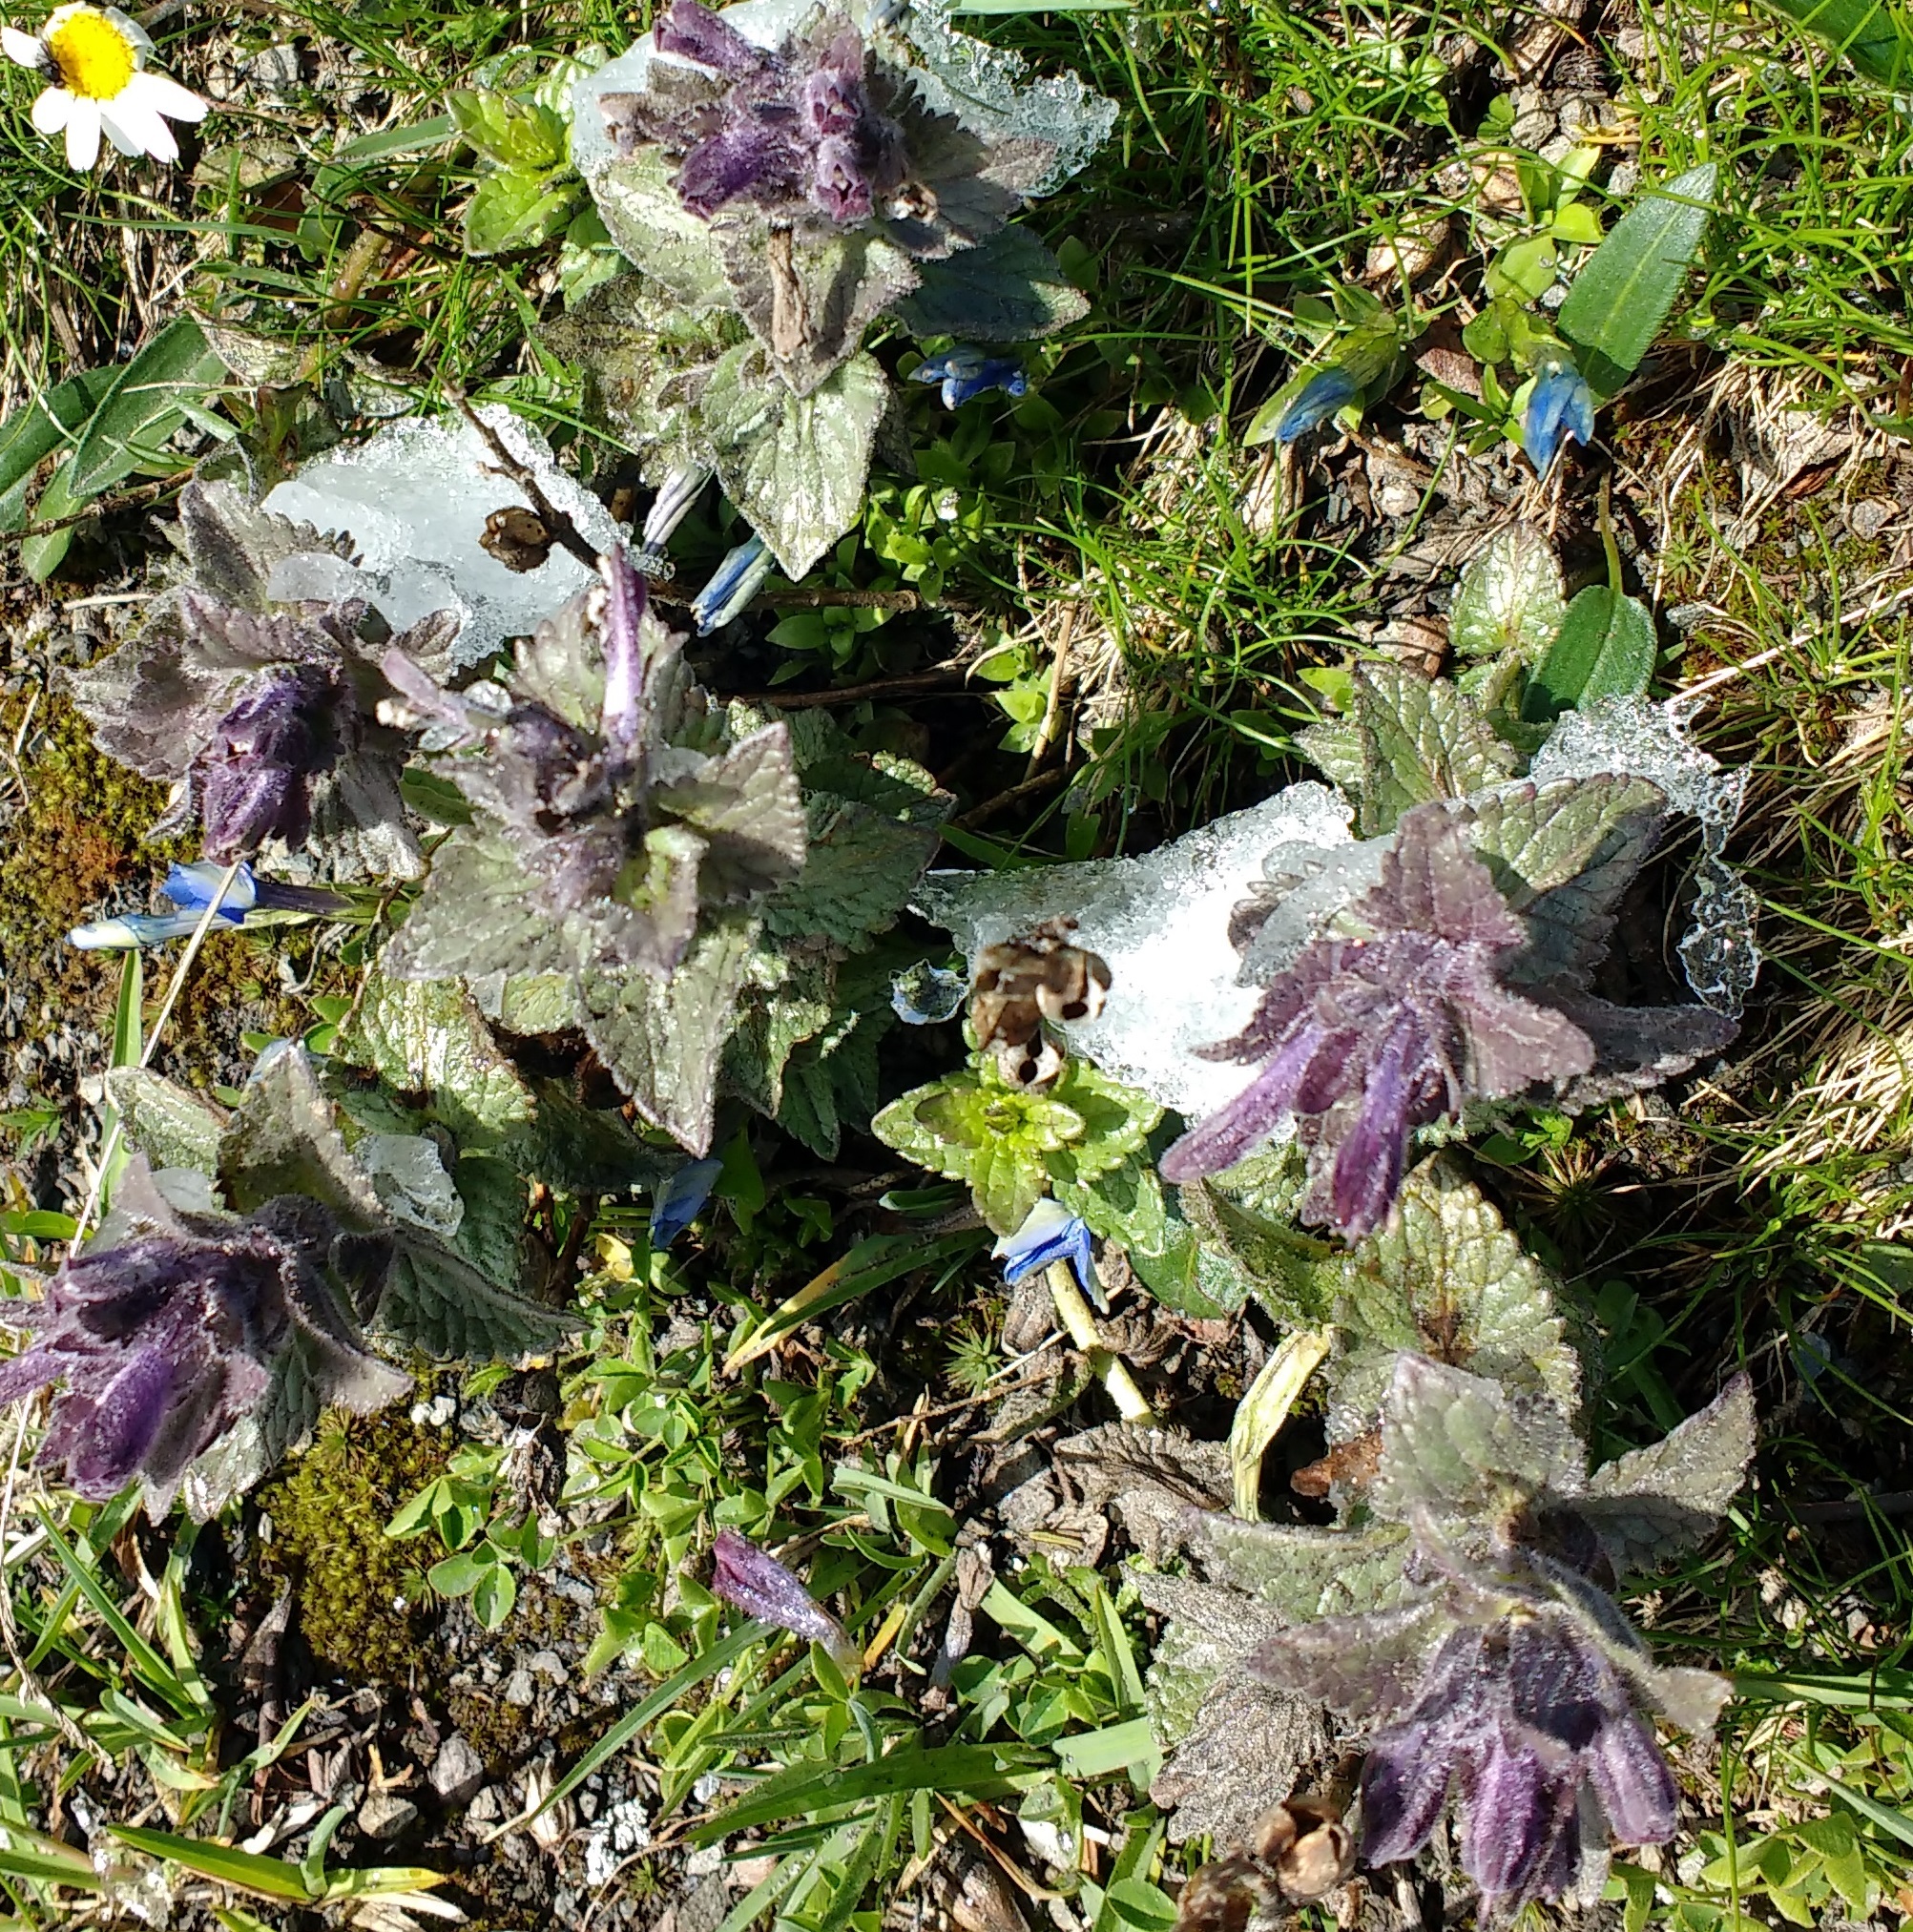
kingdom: Plantae
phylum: Tracheophyta
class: Magnoliopsida
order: Lamiales
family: Orobanchaceae
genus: Bartsia
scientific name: Bartsia alpina
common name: Alpine bartsia
